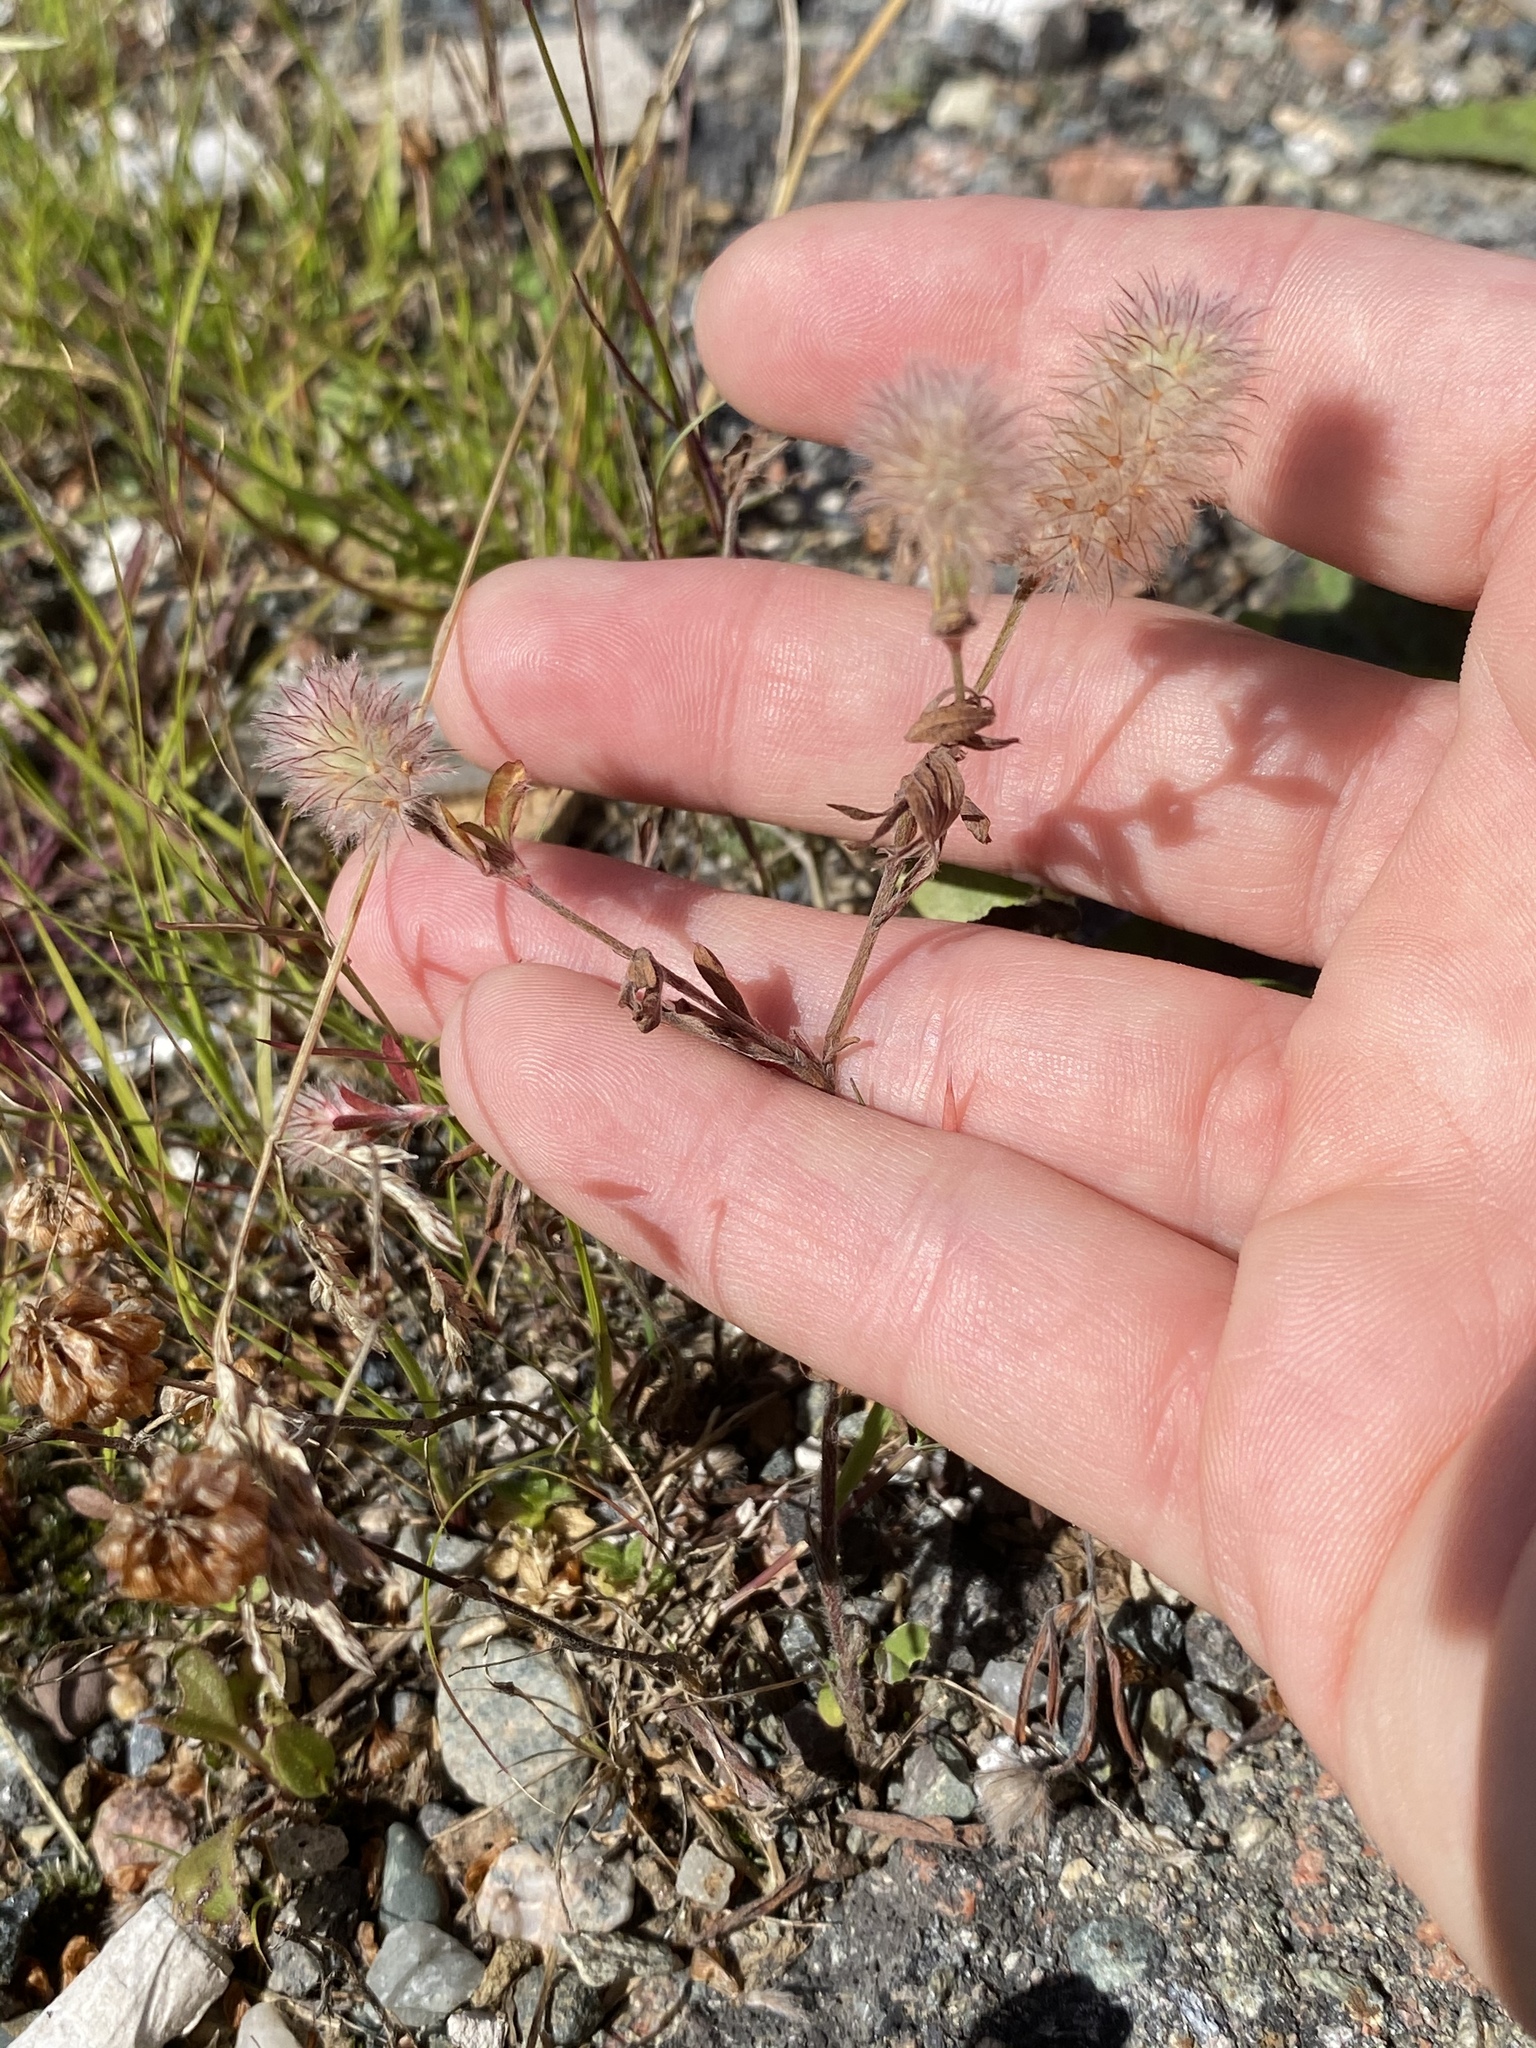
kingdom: Plantae
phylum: Tracheophyta
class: Magnoliopsida
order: Fabales
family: Fabaceae
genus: Trifolium
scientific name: Trifolium arvense
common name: Hare's-foot clover
